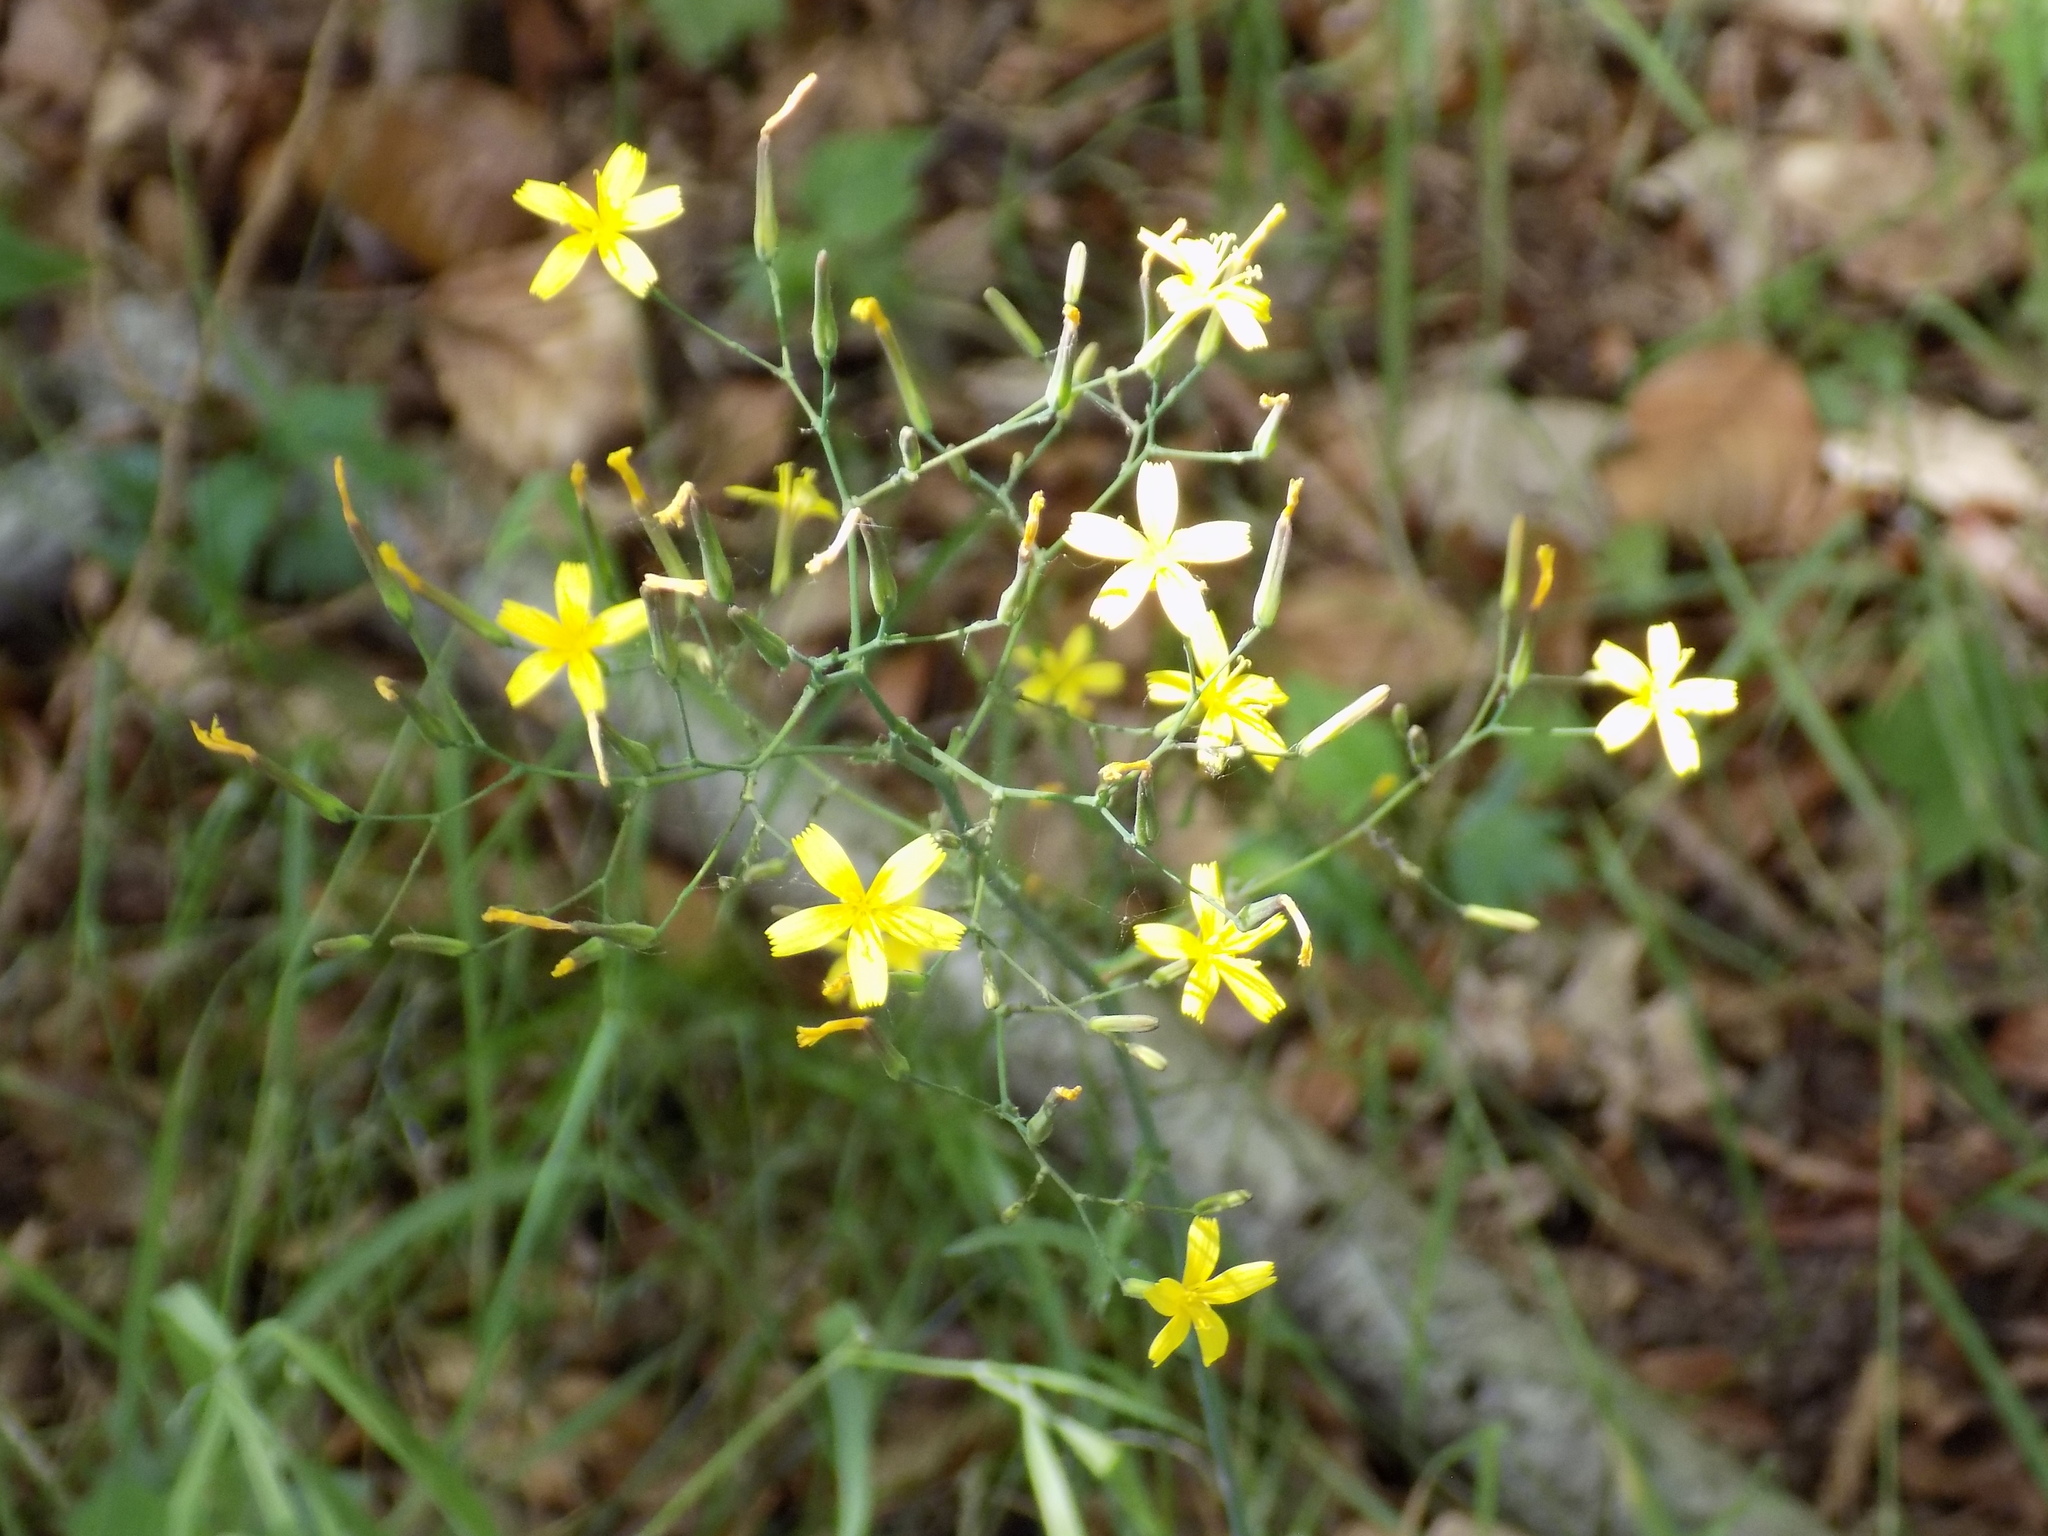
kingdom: Plantae
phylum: Tracheophyta
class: Magnoliopsida
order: Asterales
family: Asteraceae
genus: Mycelis
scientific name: Mycelis muralis
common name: Wall lettuce
